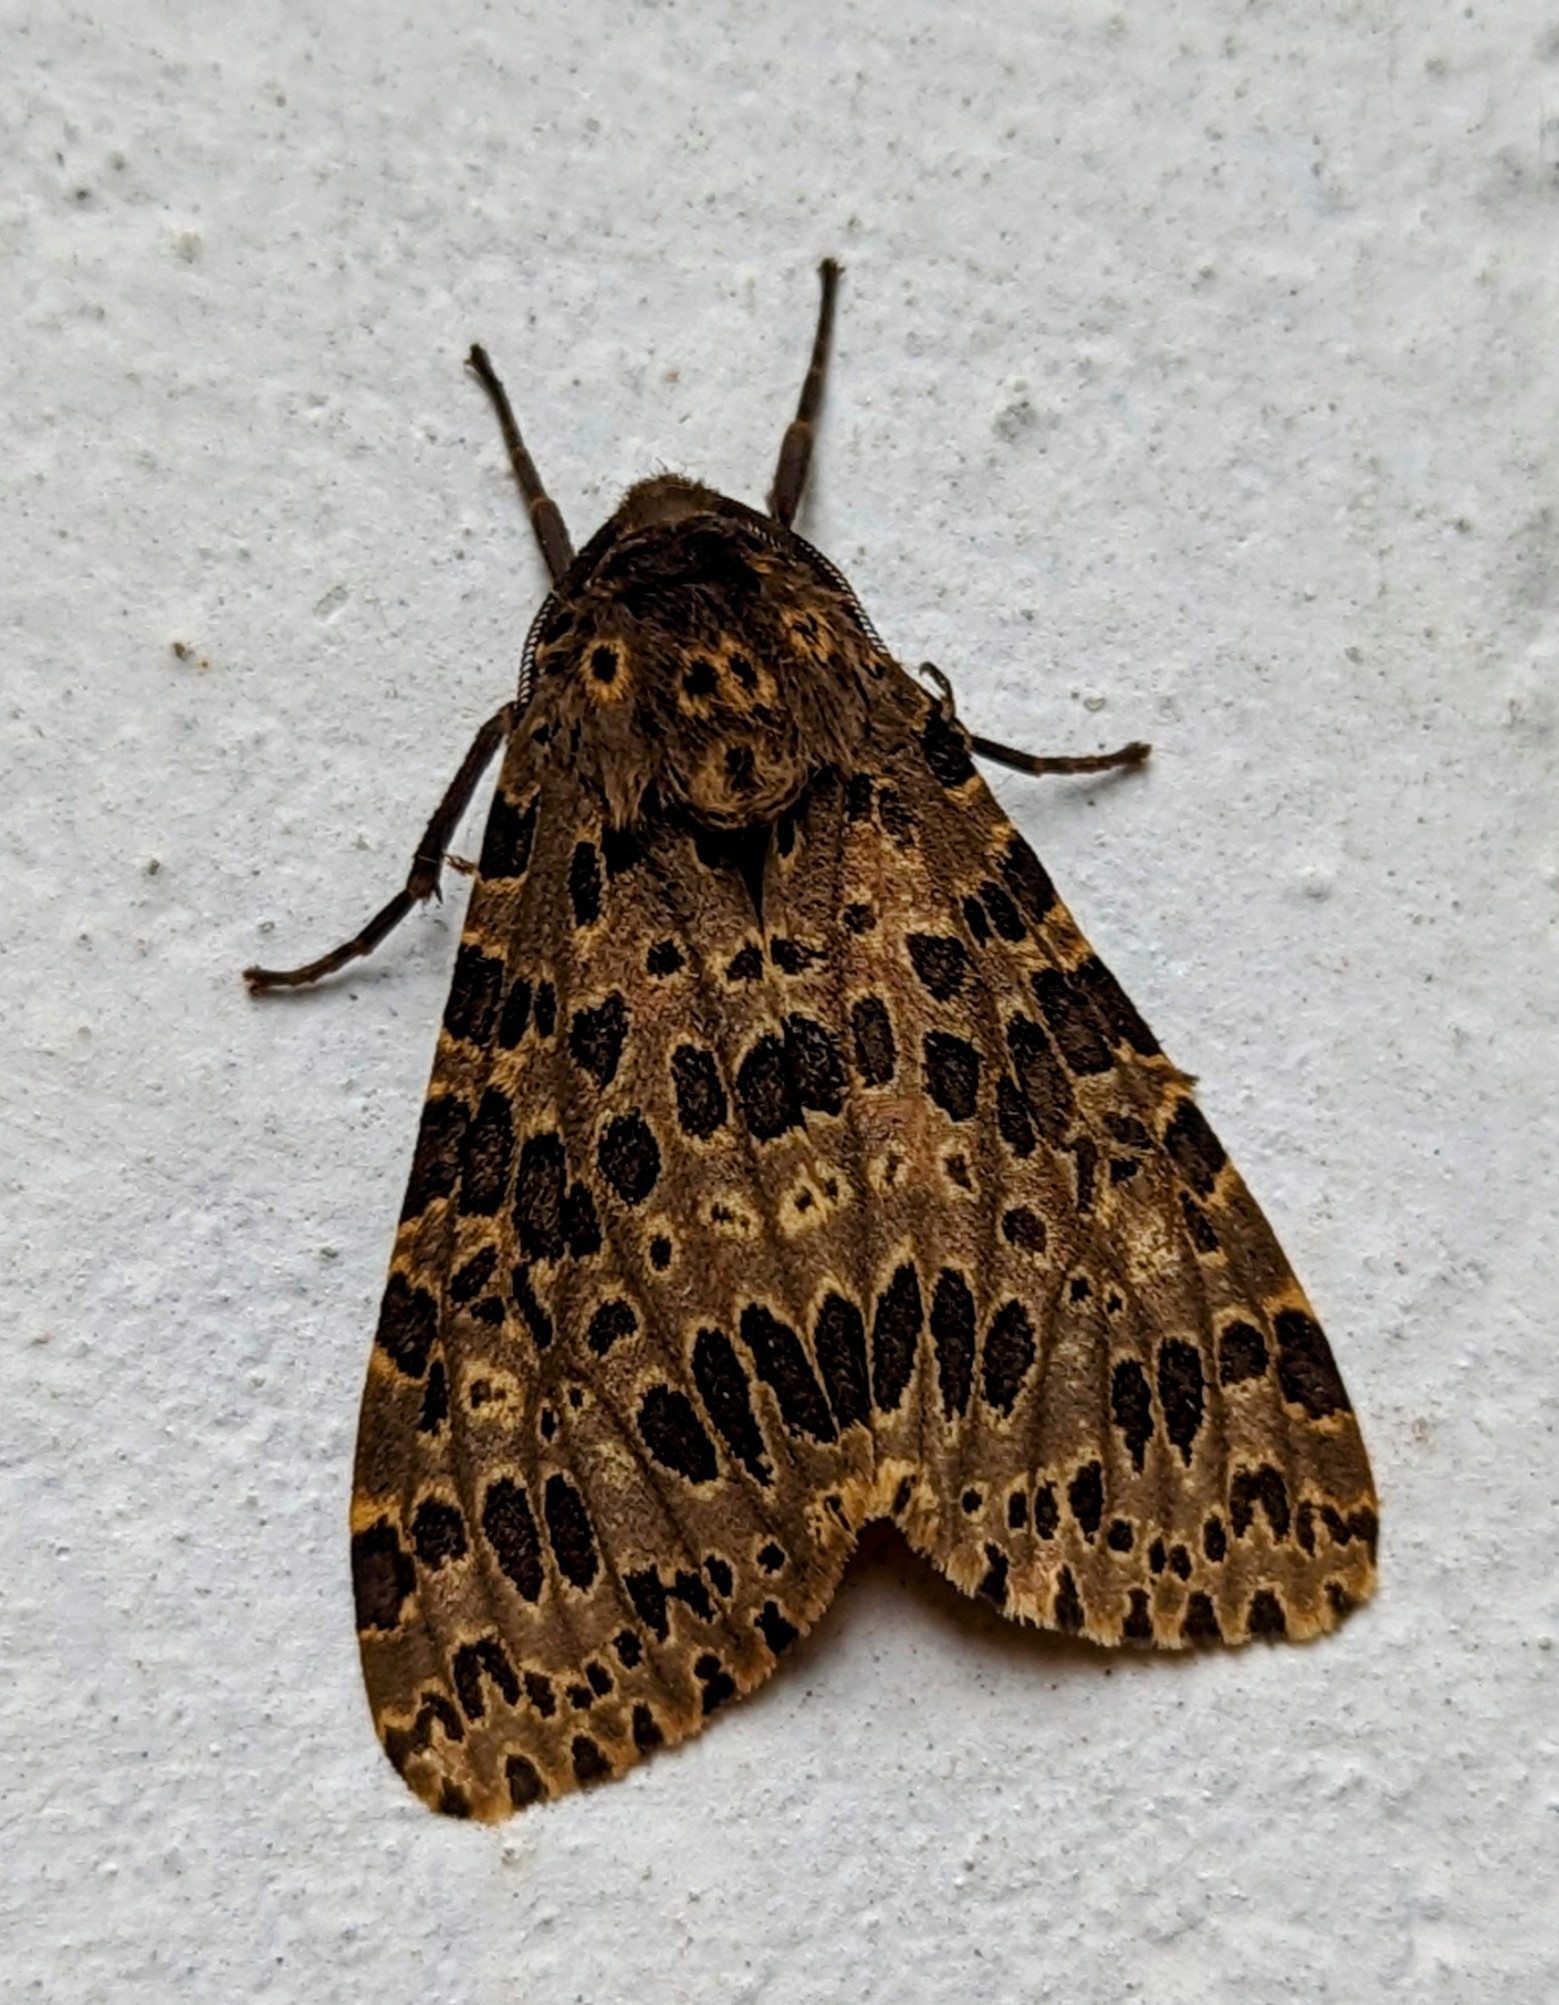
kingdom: Animalia
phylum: Arthropoda
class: Insecta
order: Lepidoptera
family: Erebidae
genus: Olepa
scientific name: Olepa ricini
